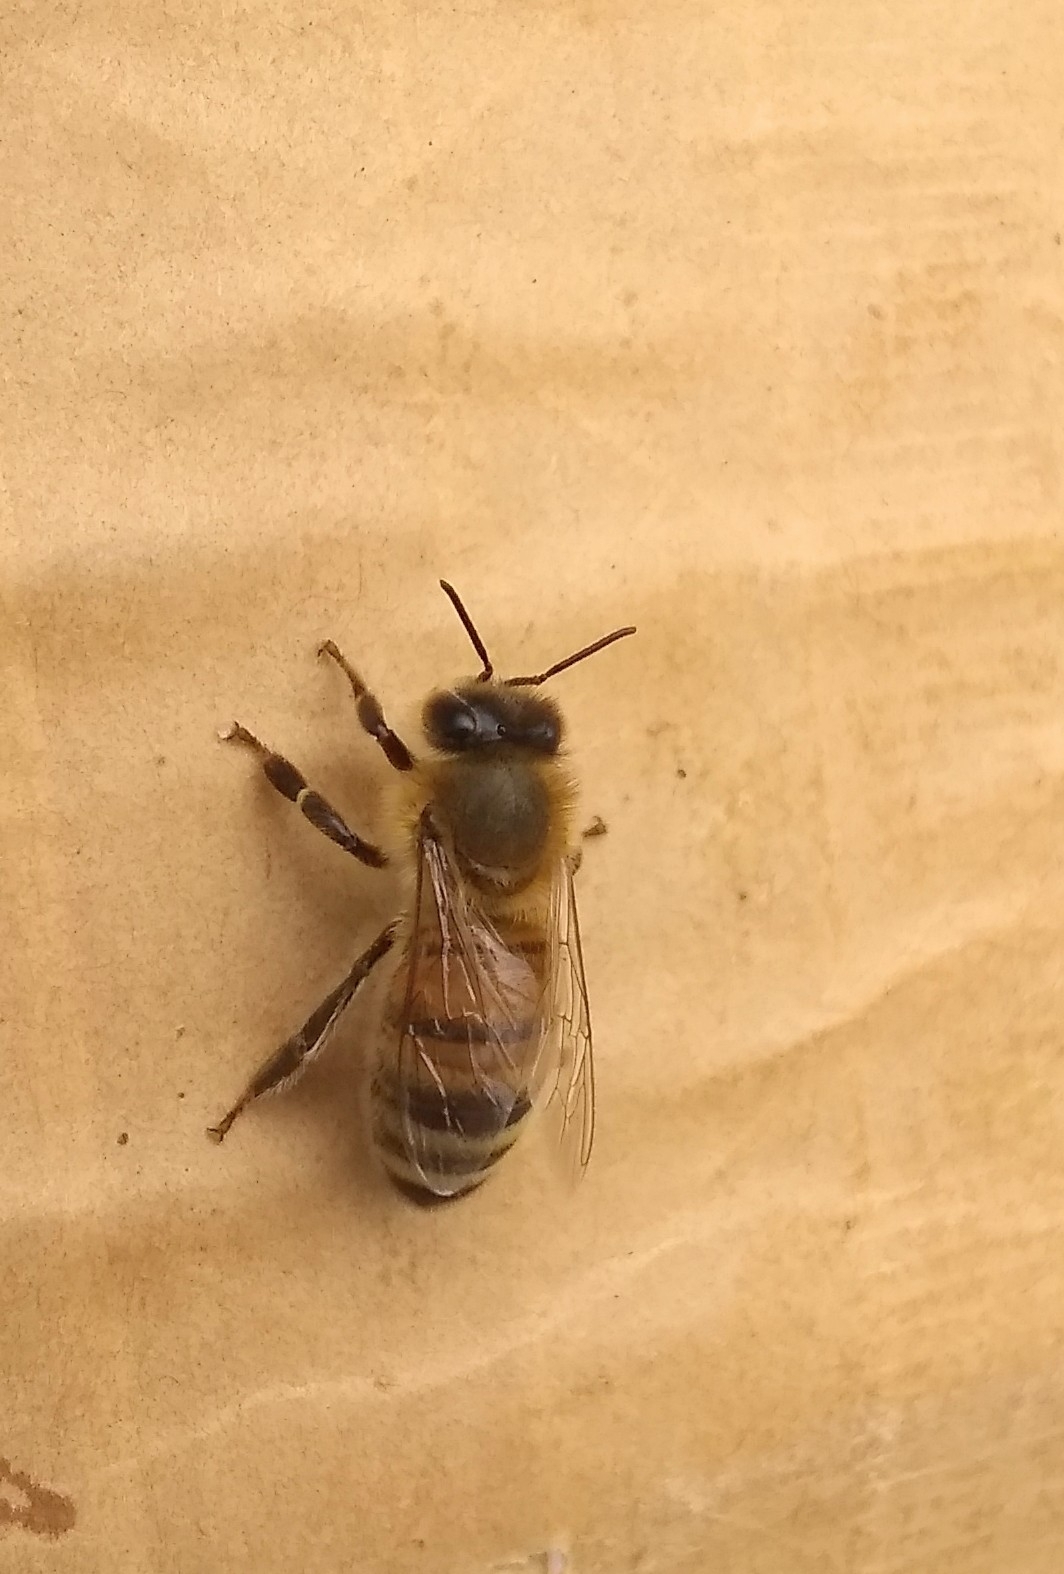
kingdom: Animalia
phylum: Arthropoda
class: Insecta
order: Hymenoptera
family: Apidae
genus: Apis
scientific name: Apis mellifera
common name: Honey bee
